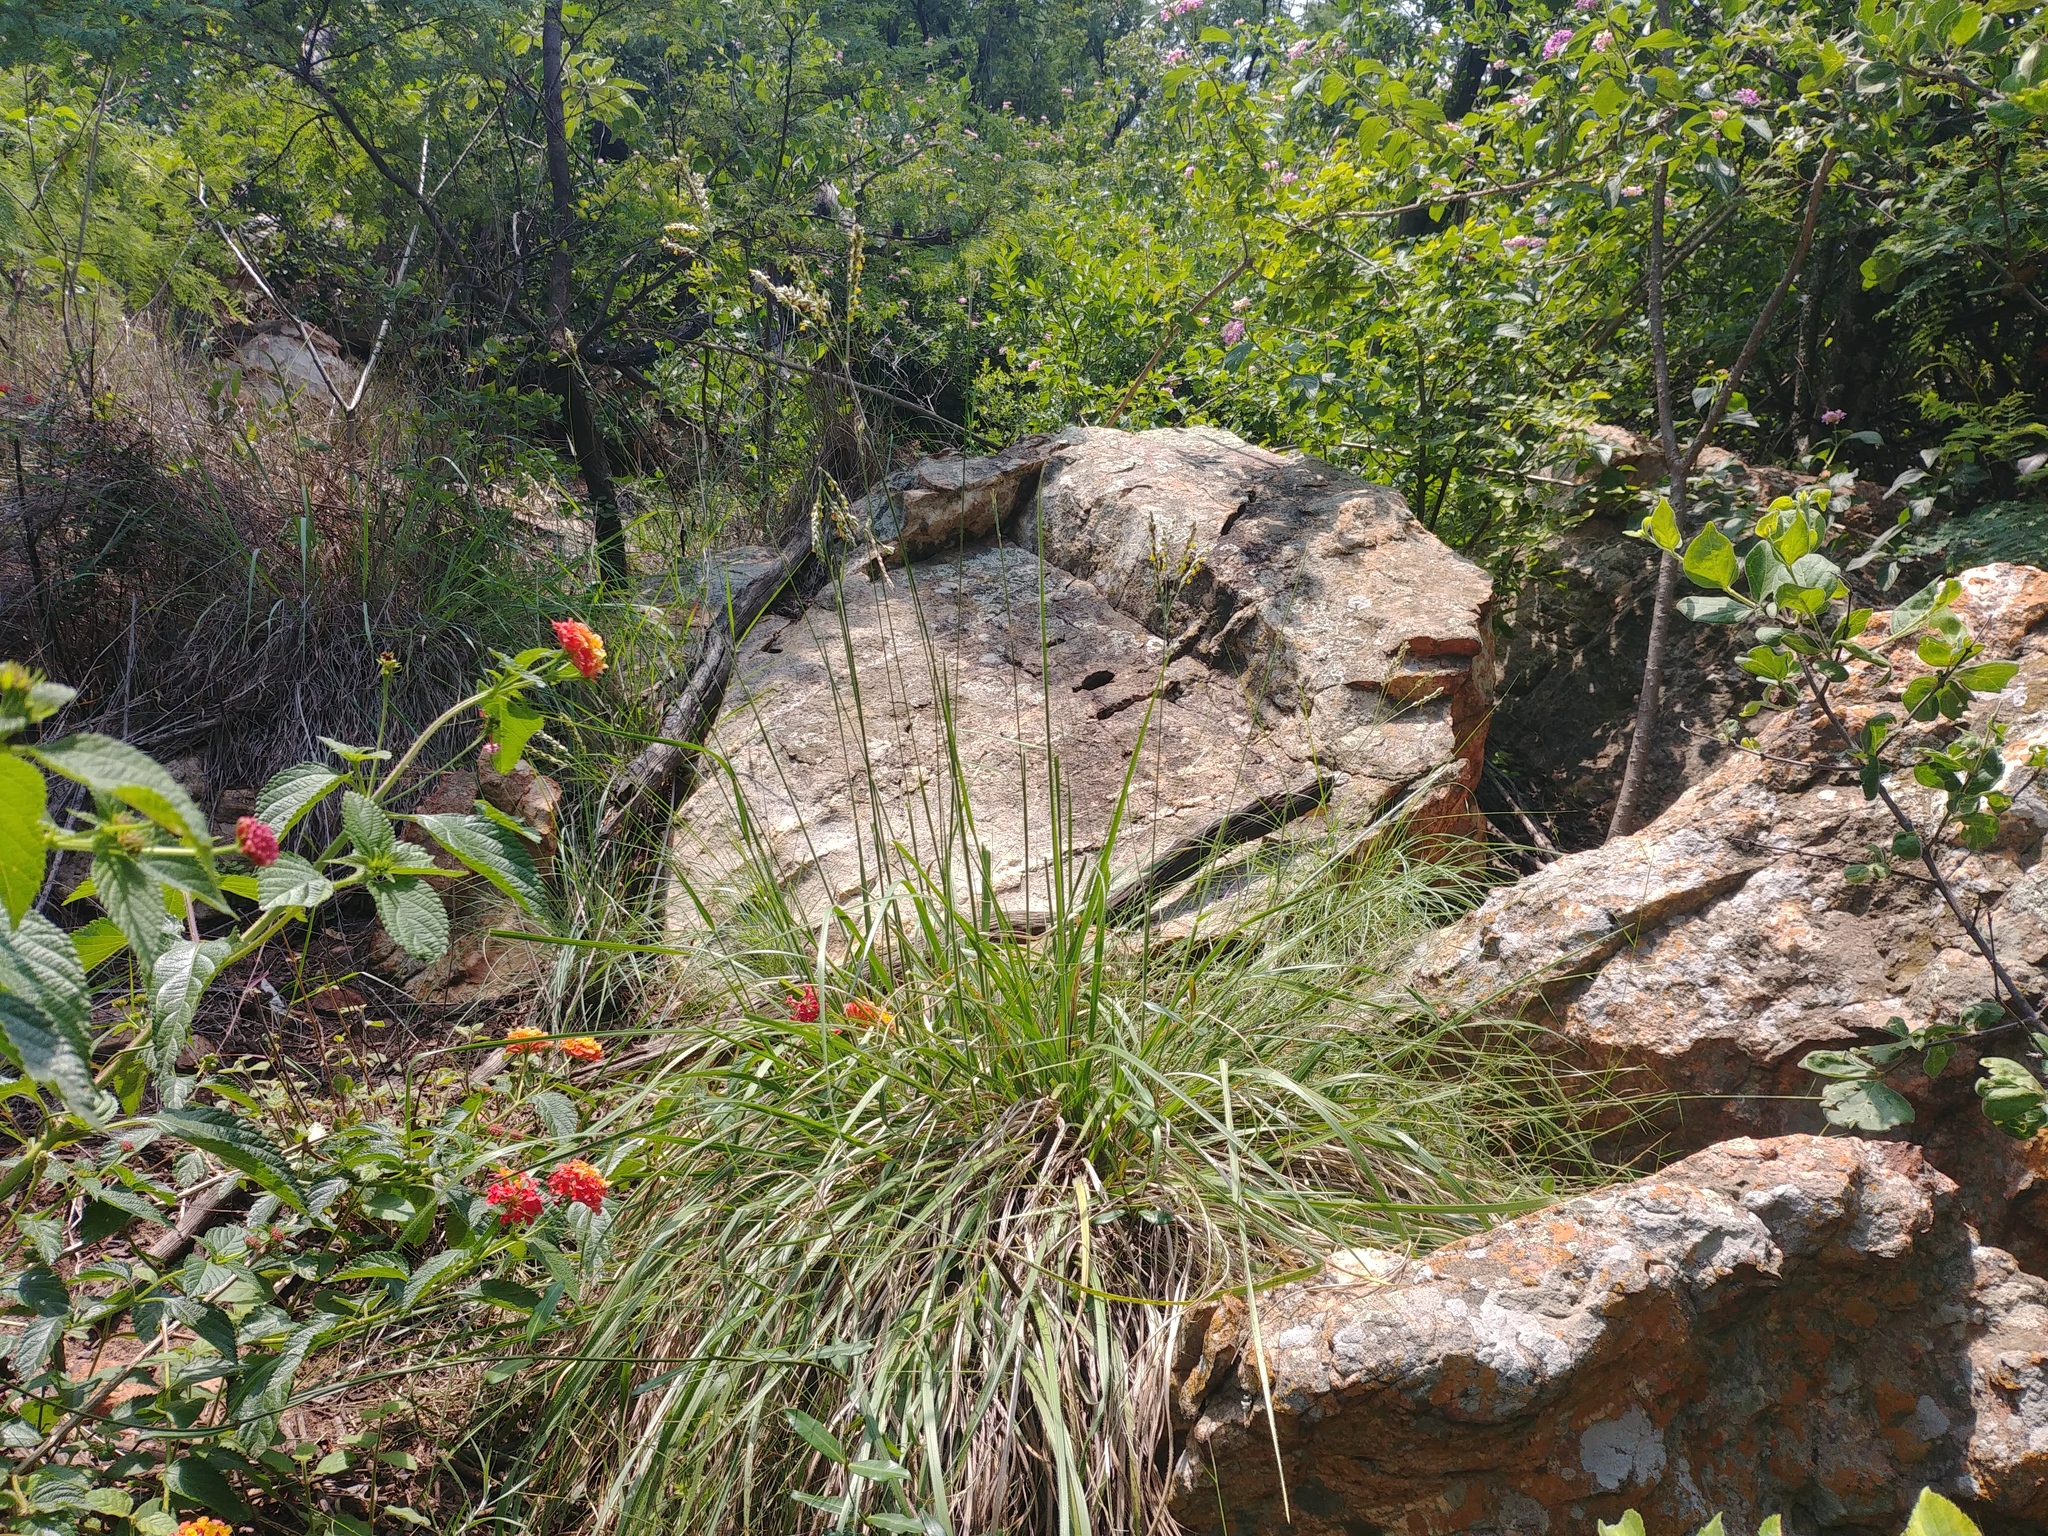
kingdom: Plantae
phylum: Tracheophyta
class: Liliopsida
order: Poales
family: Poaceae
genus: Alloteropsis
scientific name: Alloteropsis semialata
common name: Cockatoo grass
